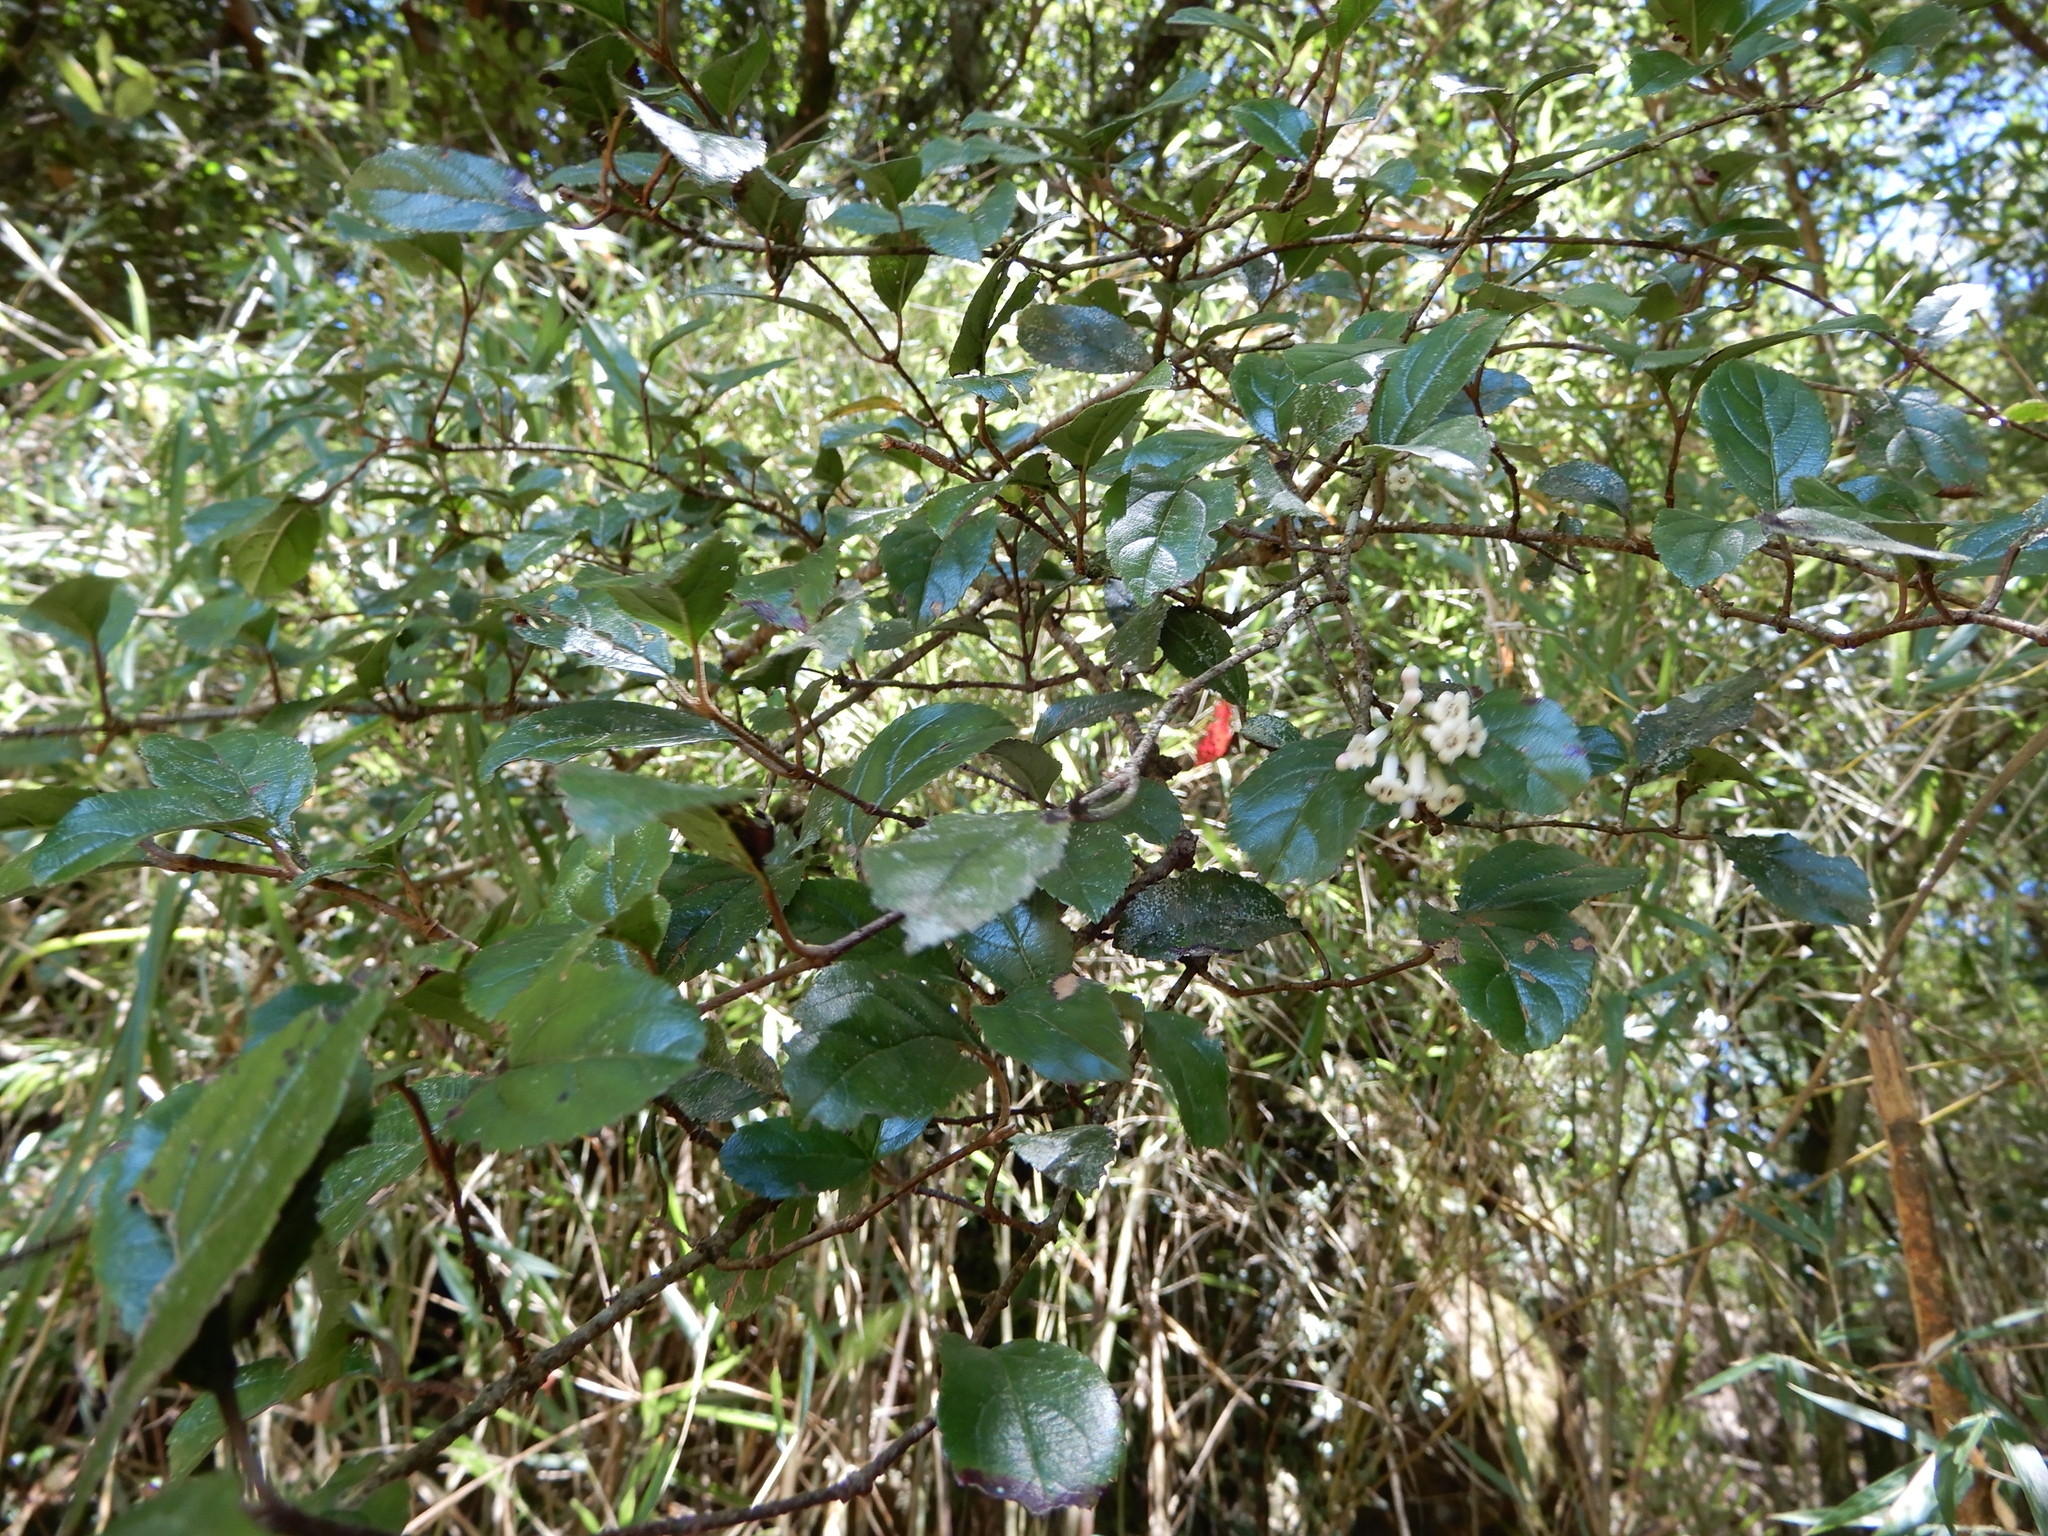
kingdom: Plantae
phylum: Tracheophyta
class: Magnoliopsida
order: Dipsacales
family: Viburnaceae
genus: Viburnum
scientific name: Viburnum taitoense
